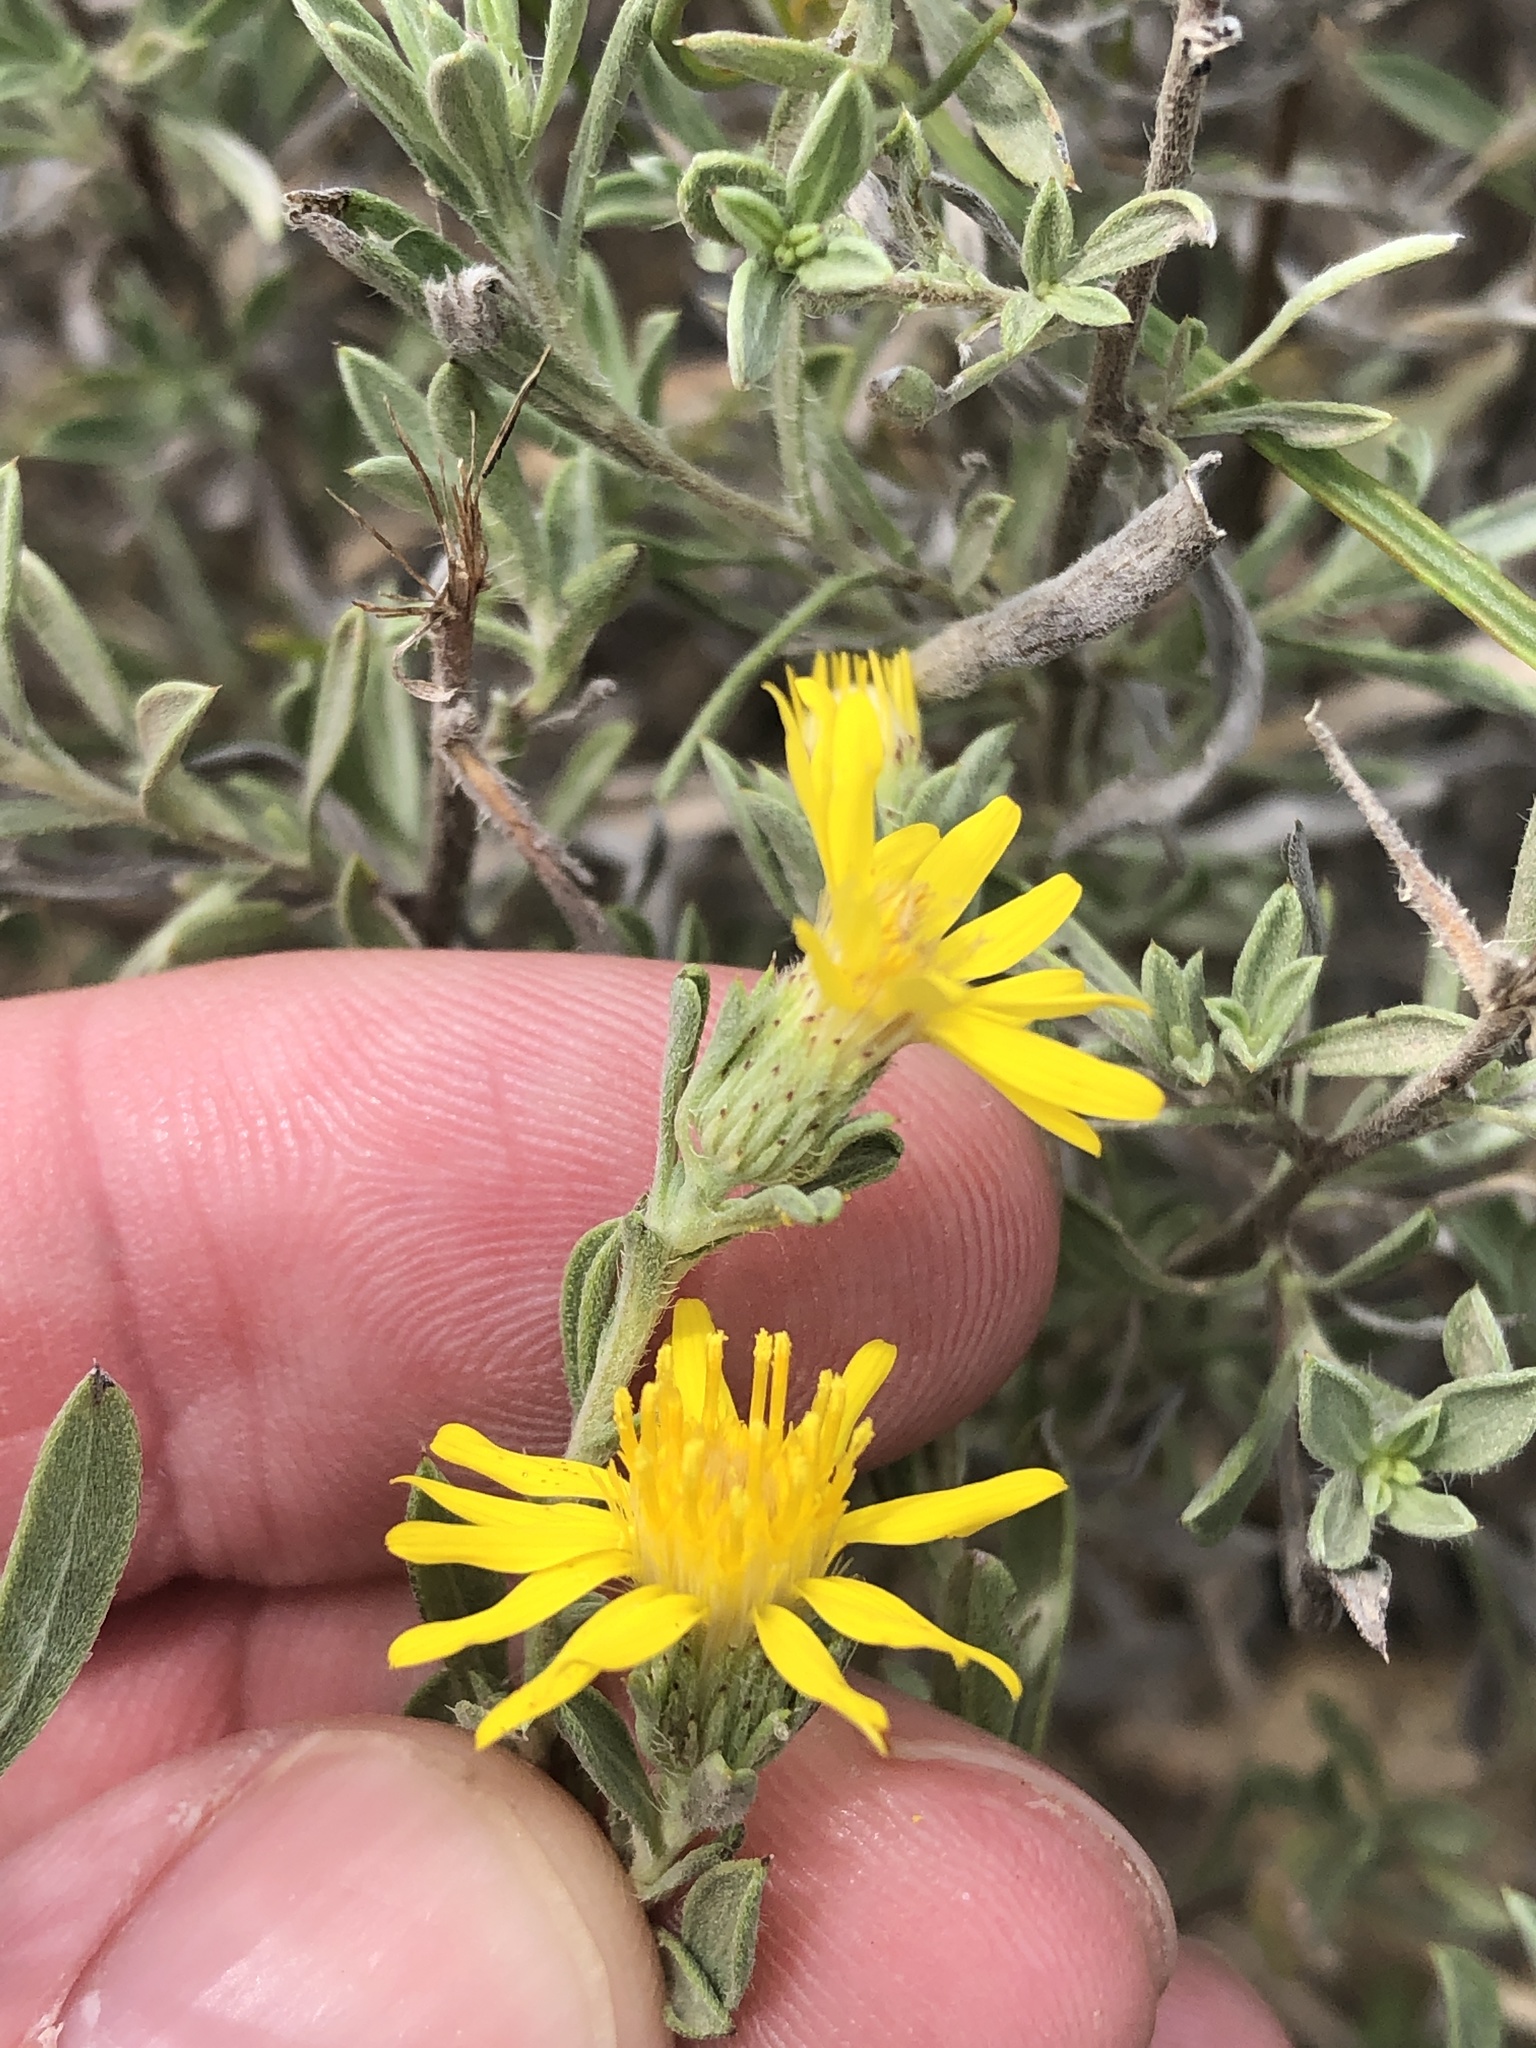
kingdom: Plantae
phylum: Tracheophyta
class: Magnoliopsida
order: Asterales
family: Asteraceae
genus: Heterotheca
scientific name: Heterotheca canescens
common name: Hoary golden-aster
